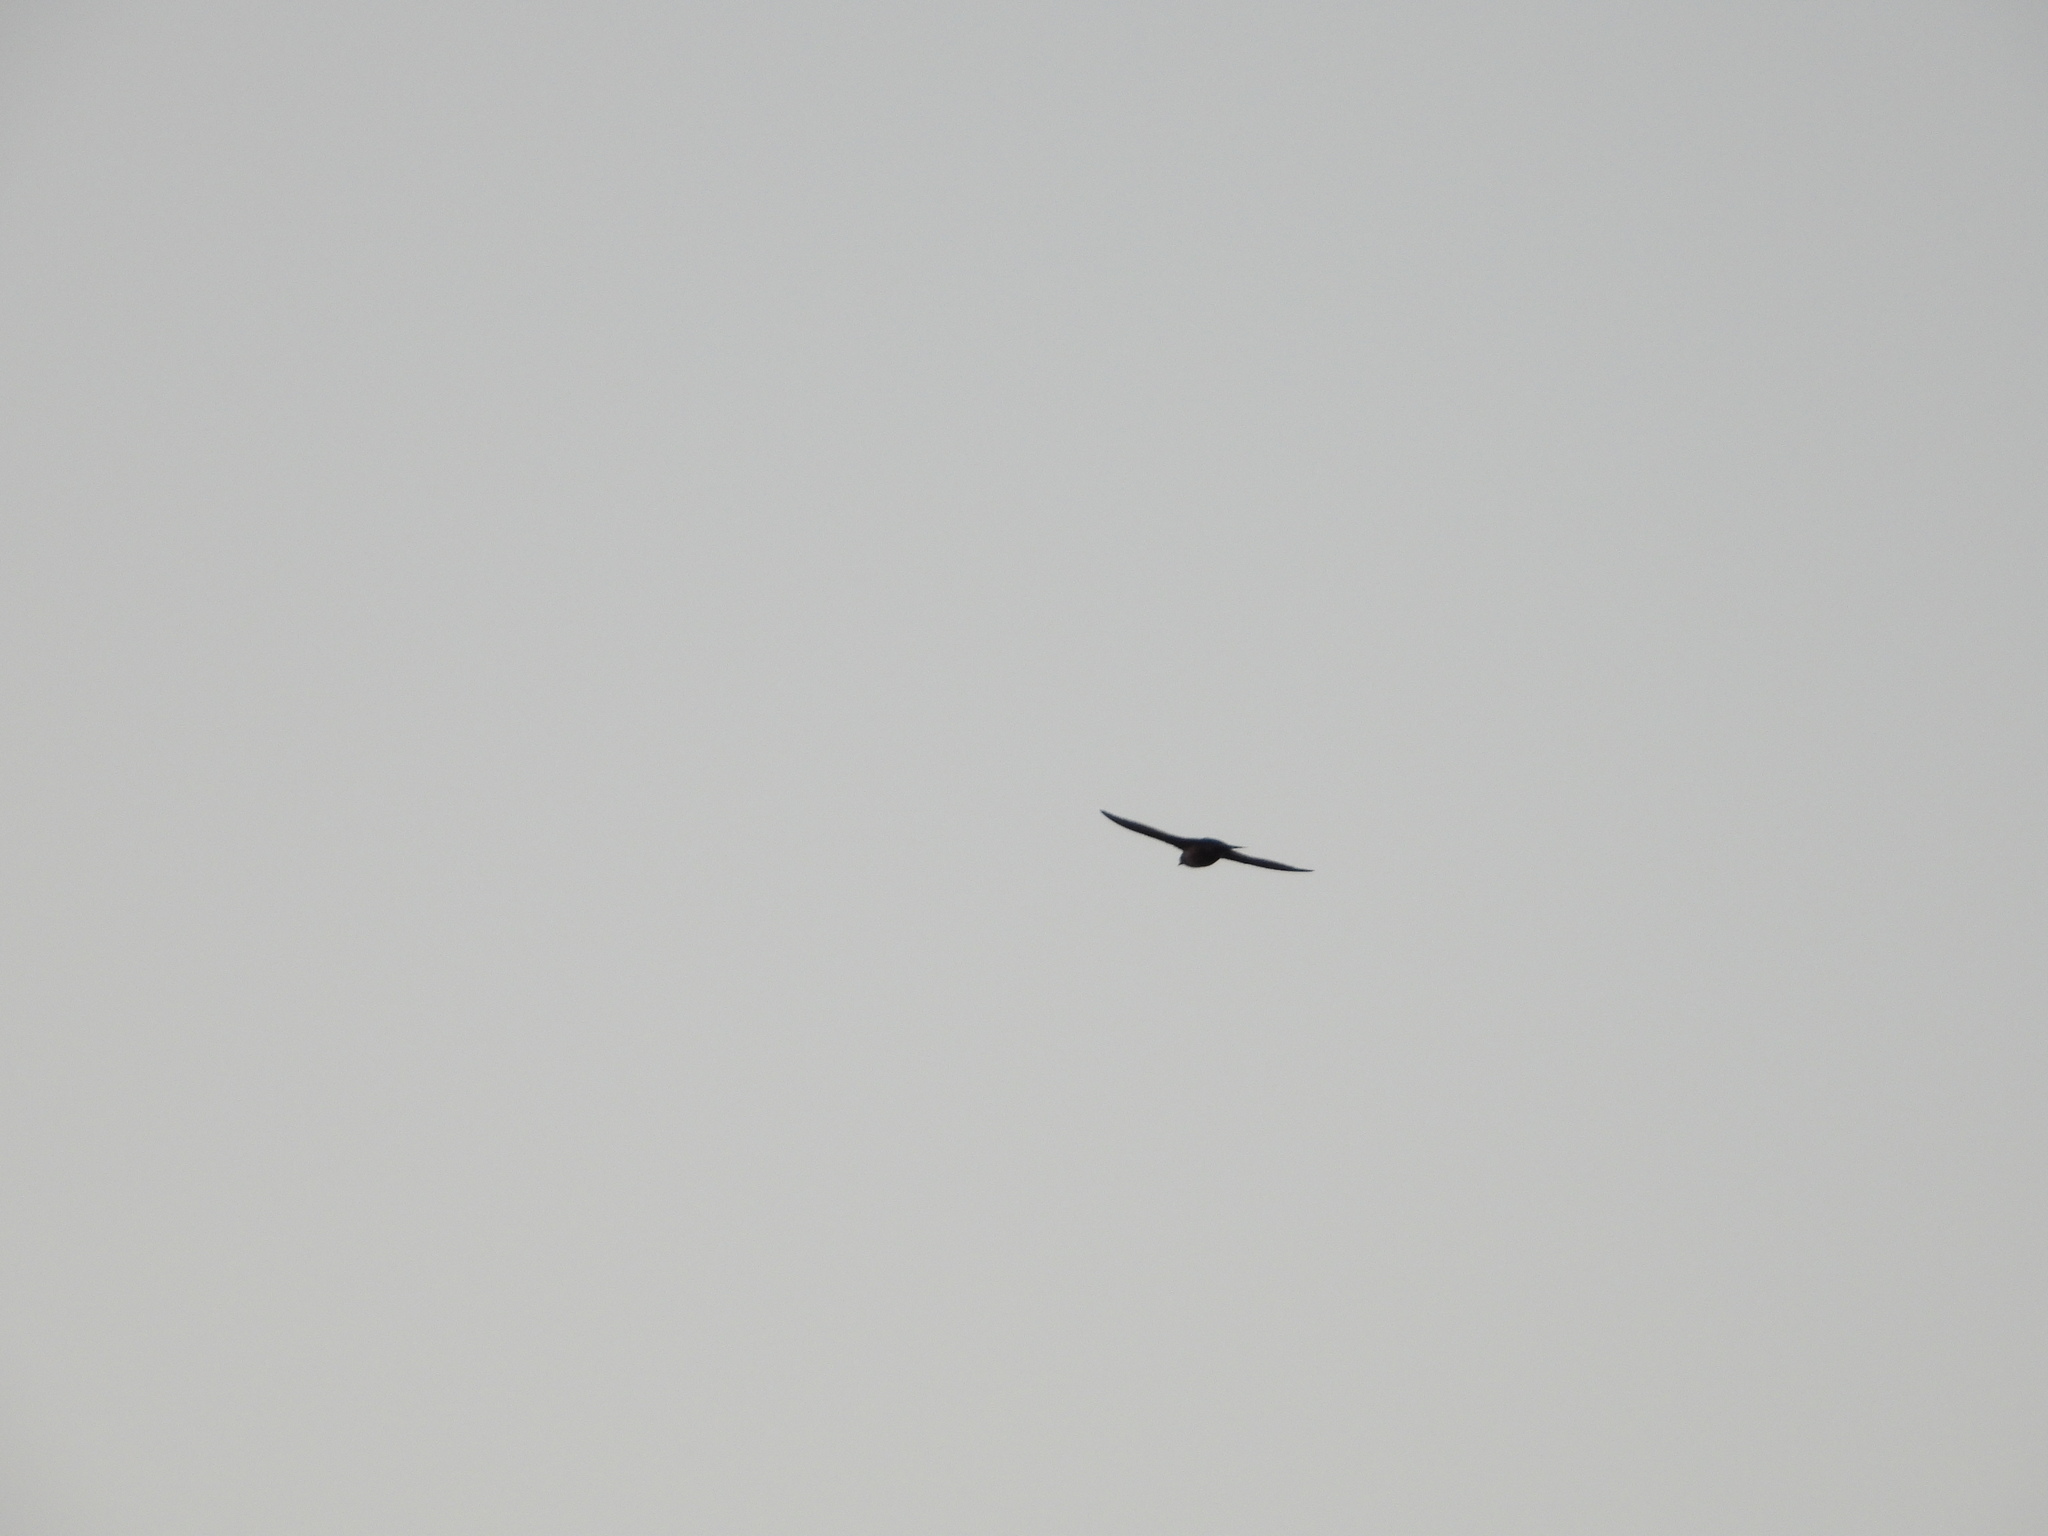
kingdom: Animalia
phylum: Chordata
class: Aves
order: Passeriformes
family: Hirundinidae
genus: Progne
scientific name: Progne subis
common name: Purple martin
